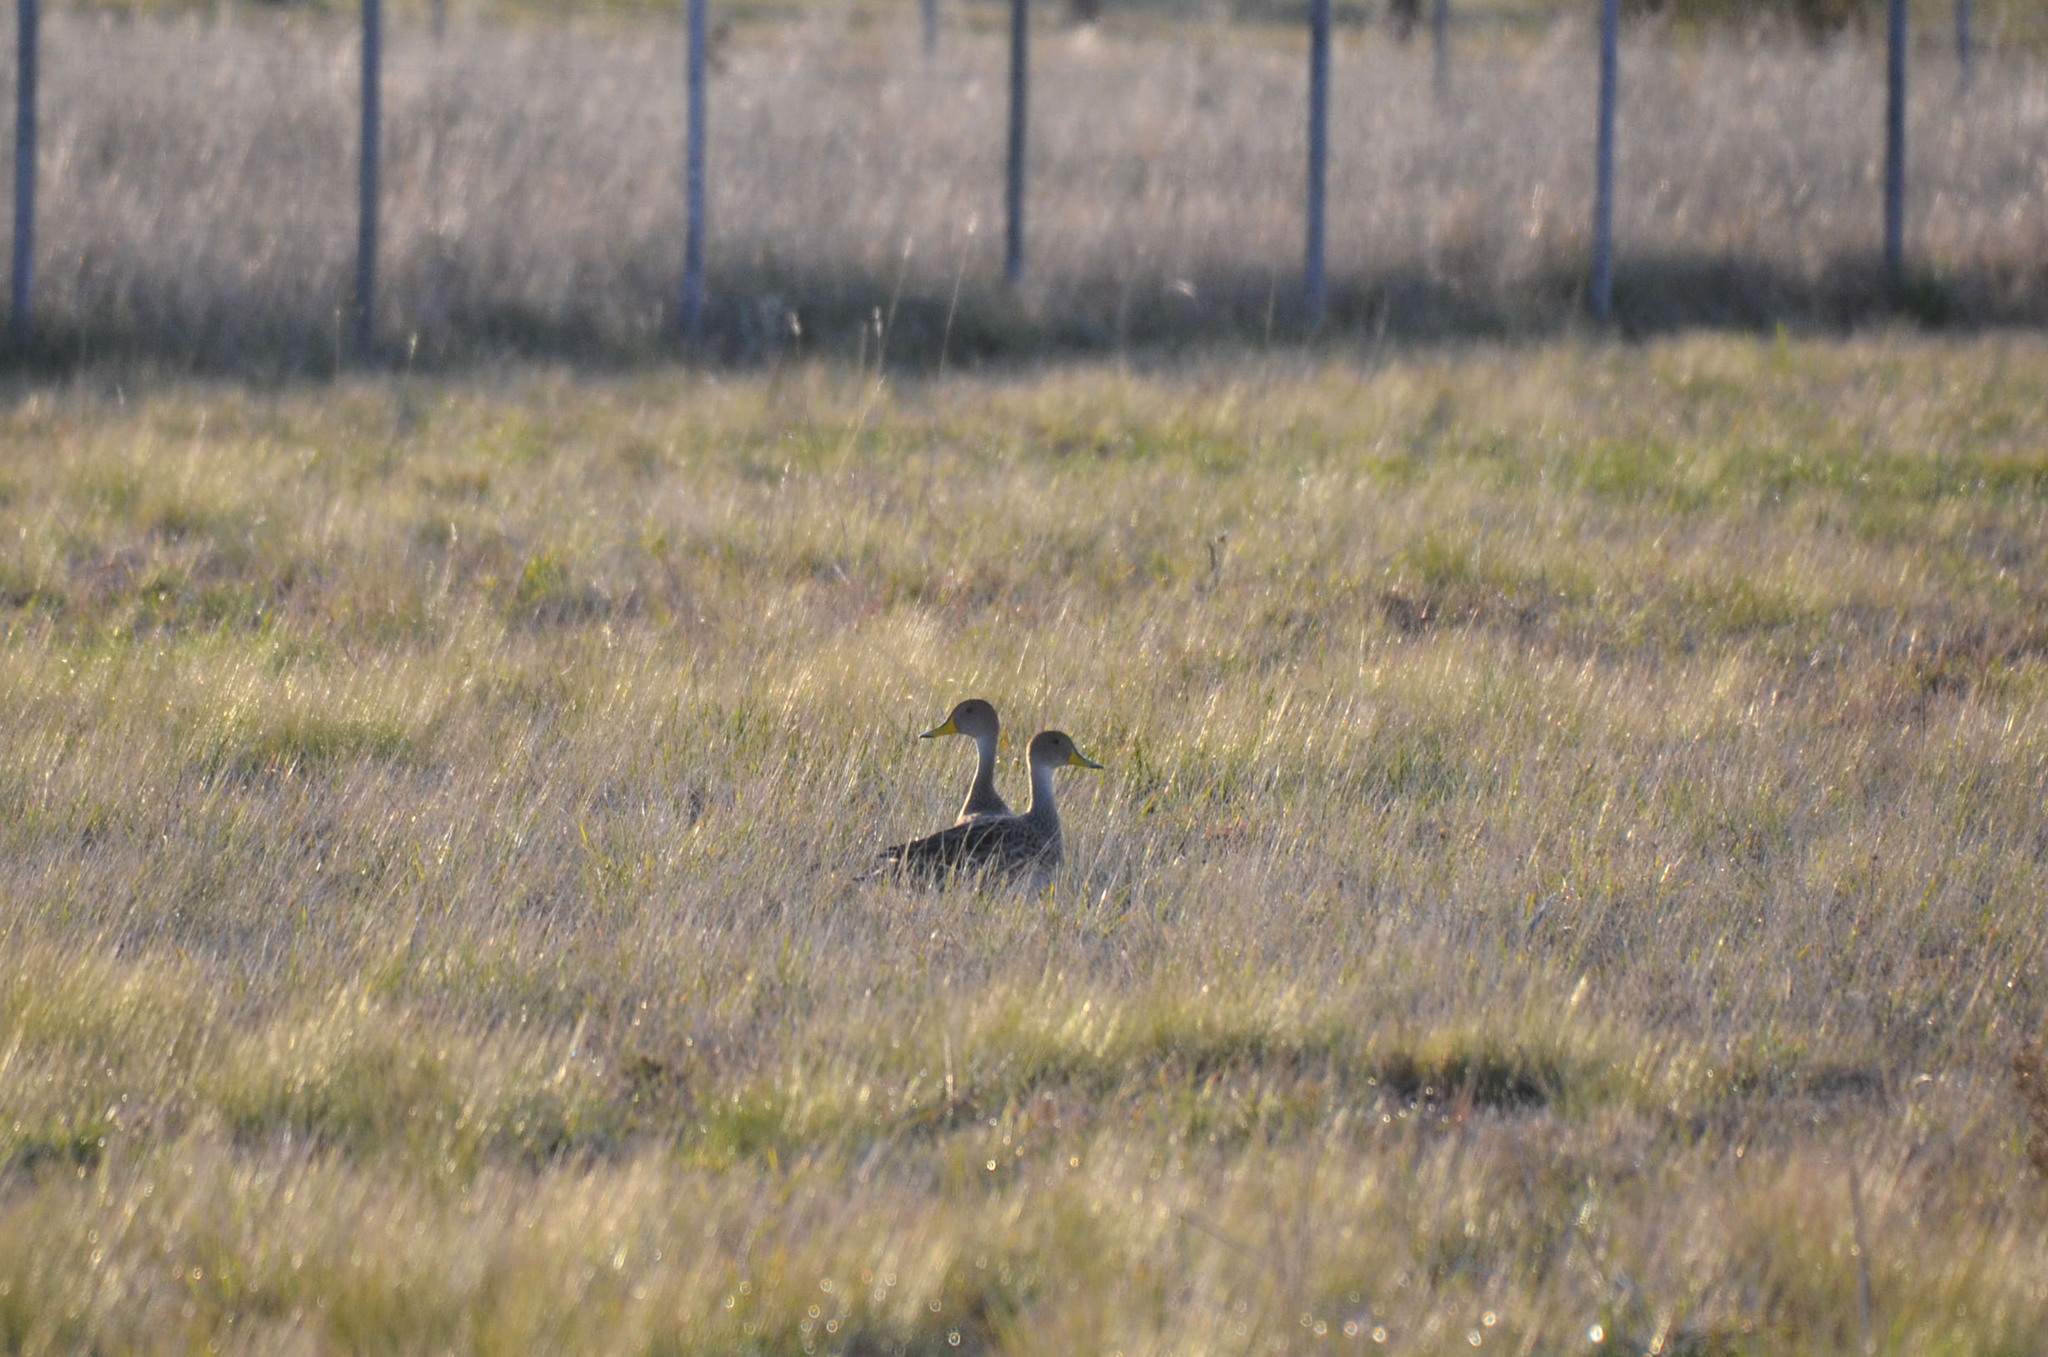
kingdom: Animalia
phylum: Chordata
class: Aves
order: Anseriformes
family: Anatidae
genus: Anas
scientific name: Anas georgica
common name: Yellow-billed pintail
